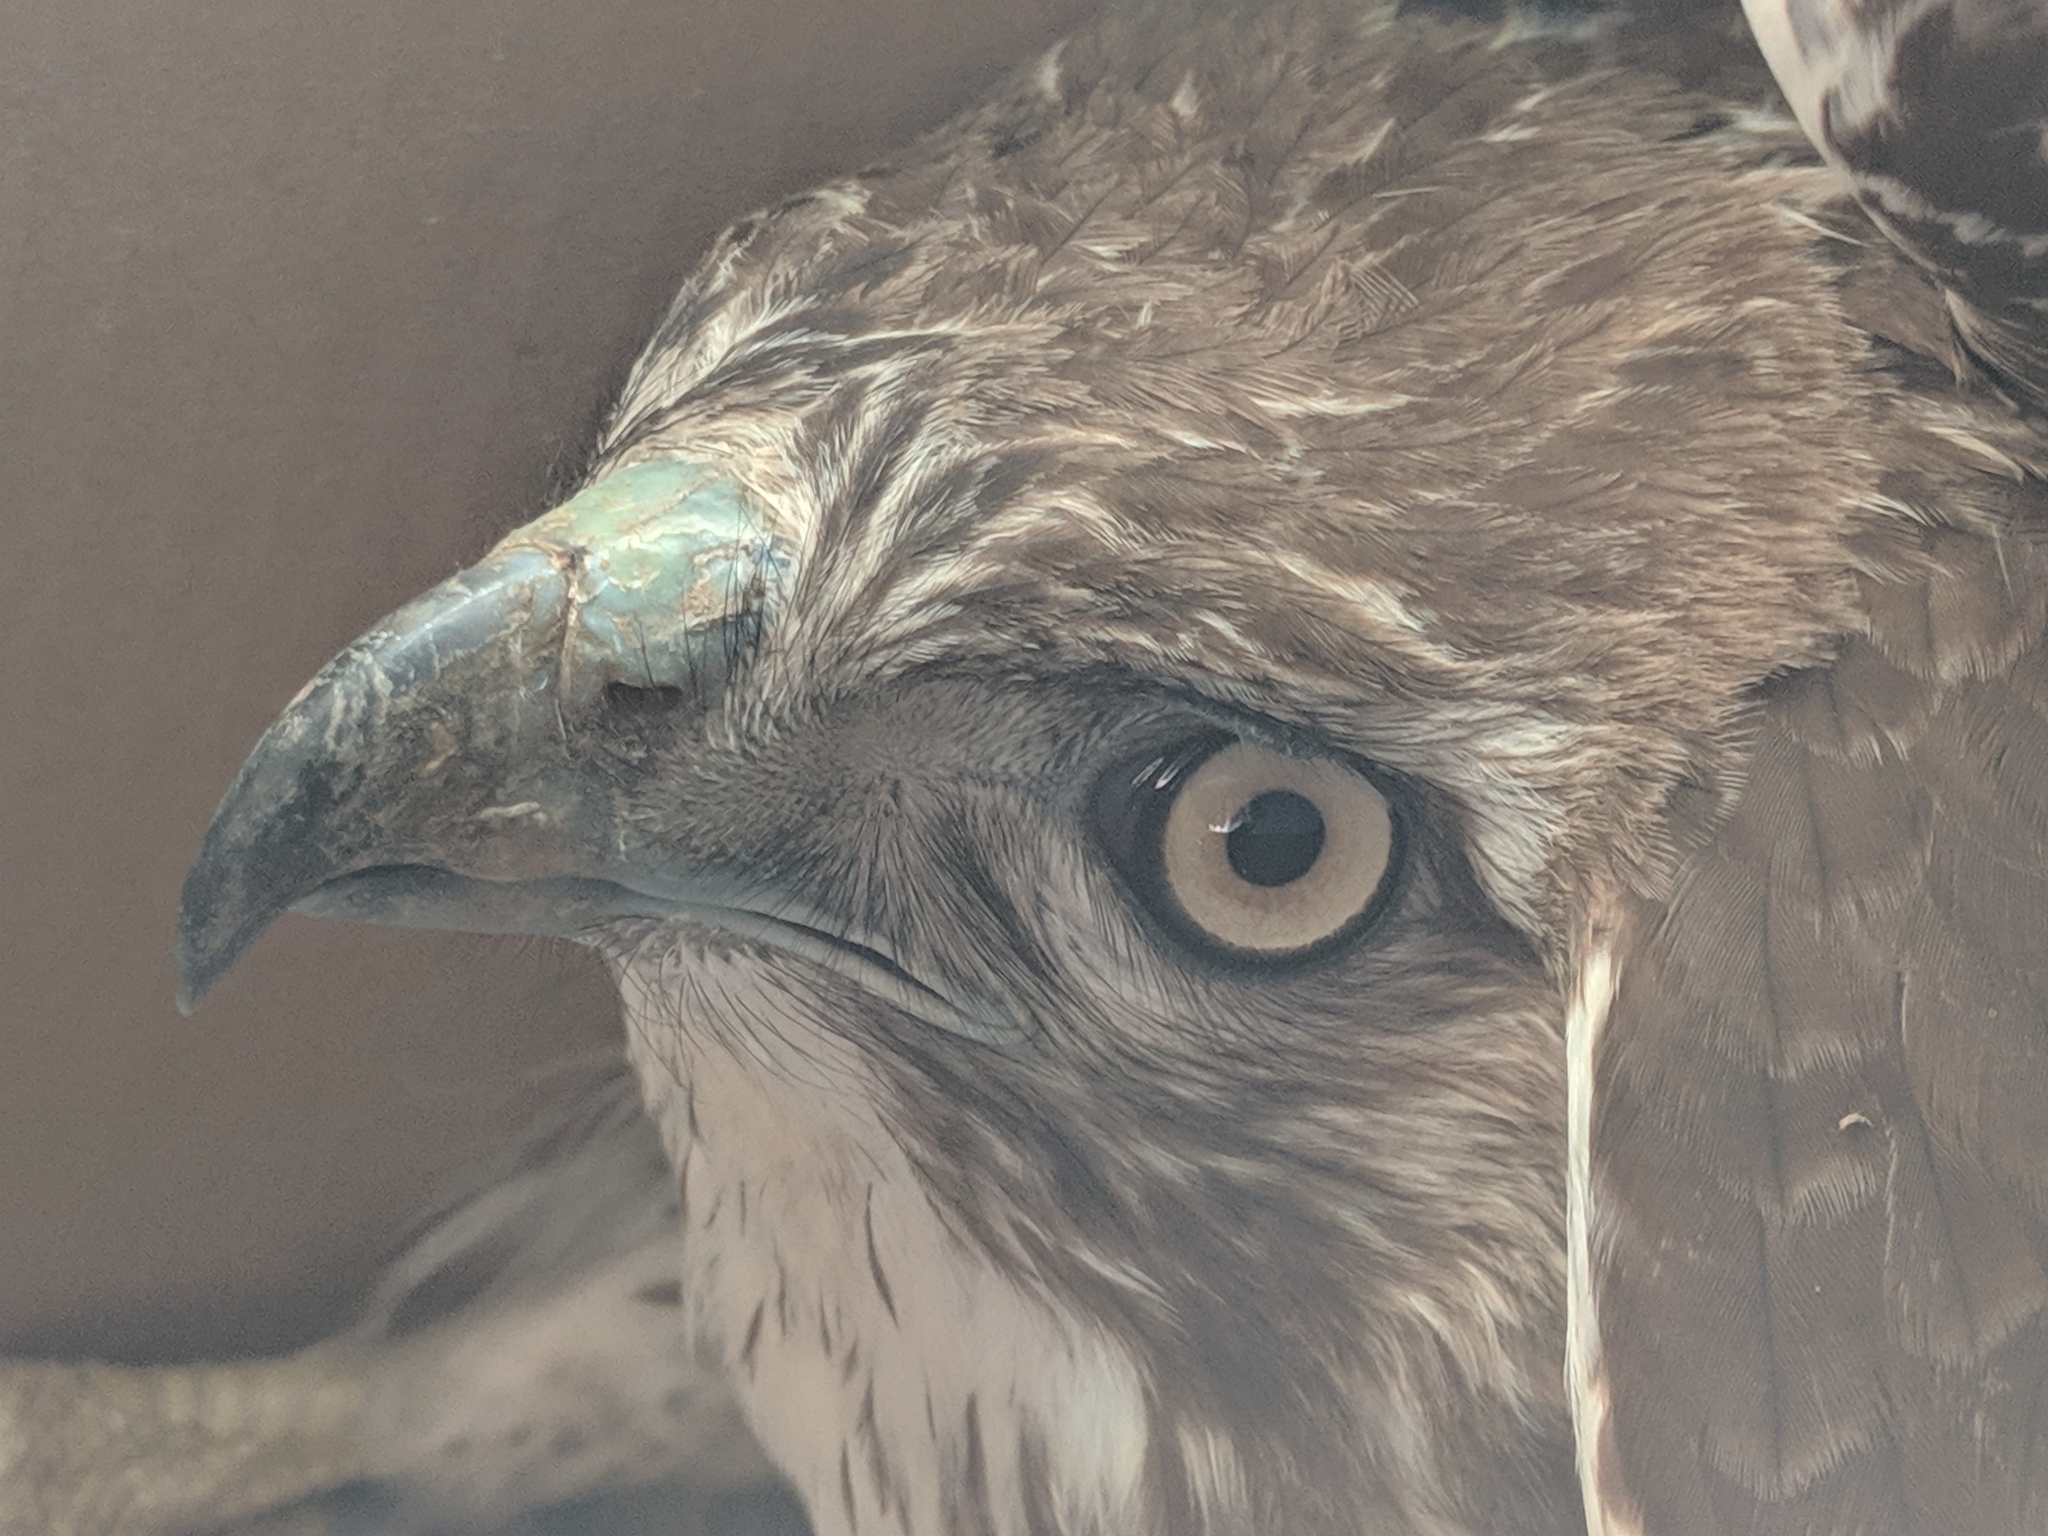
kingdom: Animalia
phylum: Chordata
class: Aves
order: Accipitriformes
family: Accipitridae
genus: Buteo
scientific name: Buteo jamaicensis
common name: Red-tailed hawk
